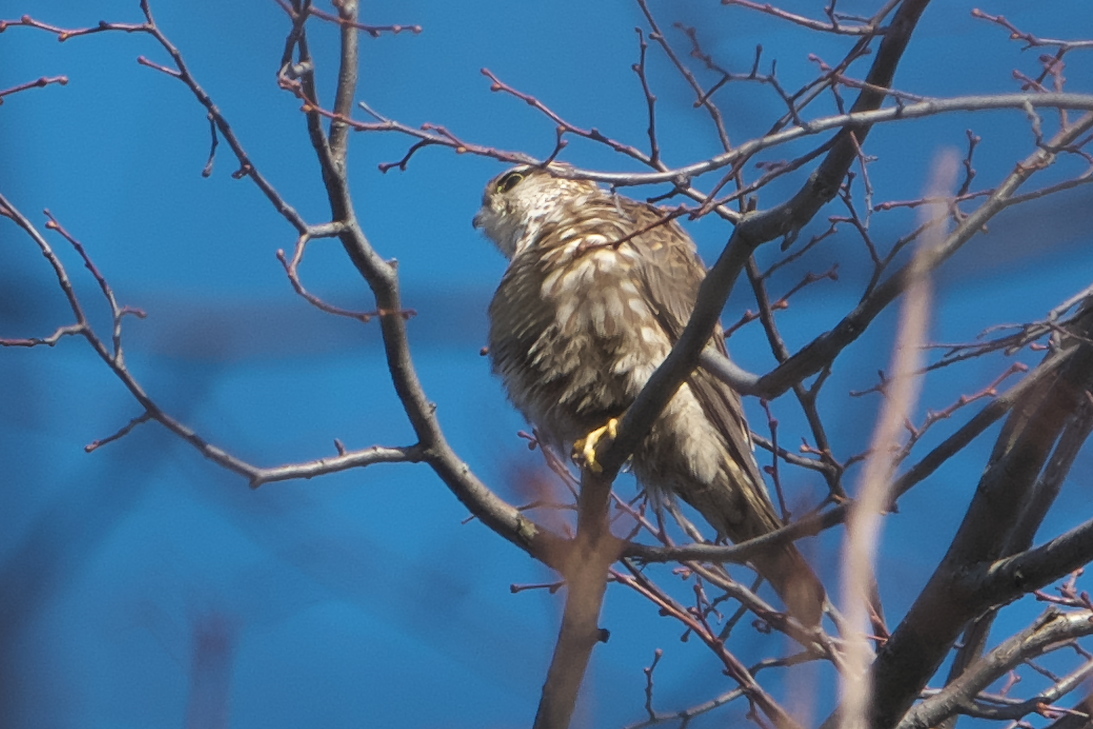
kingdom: Animalia
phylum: Chordata
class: Aves
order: Falconiformes
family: Falconidae
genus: Falco
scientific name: Falco columbarius
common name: Merlin
